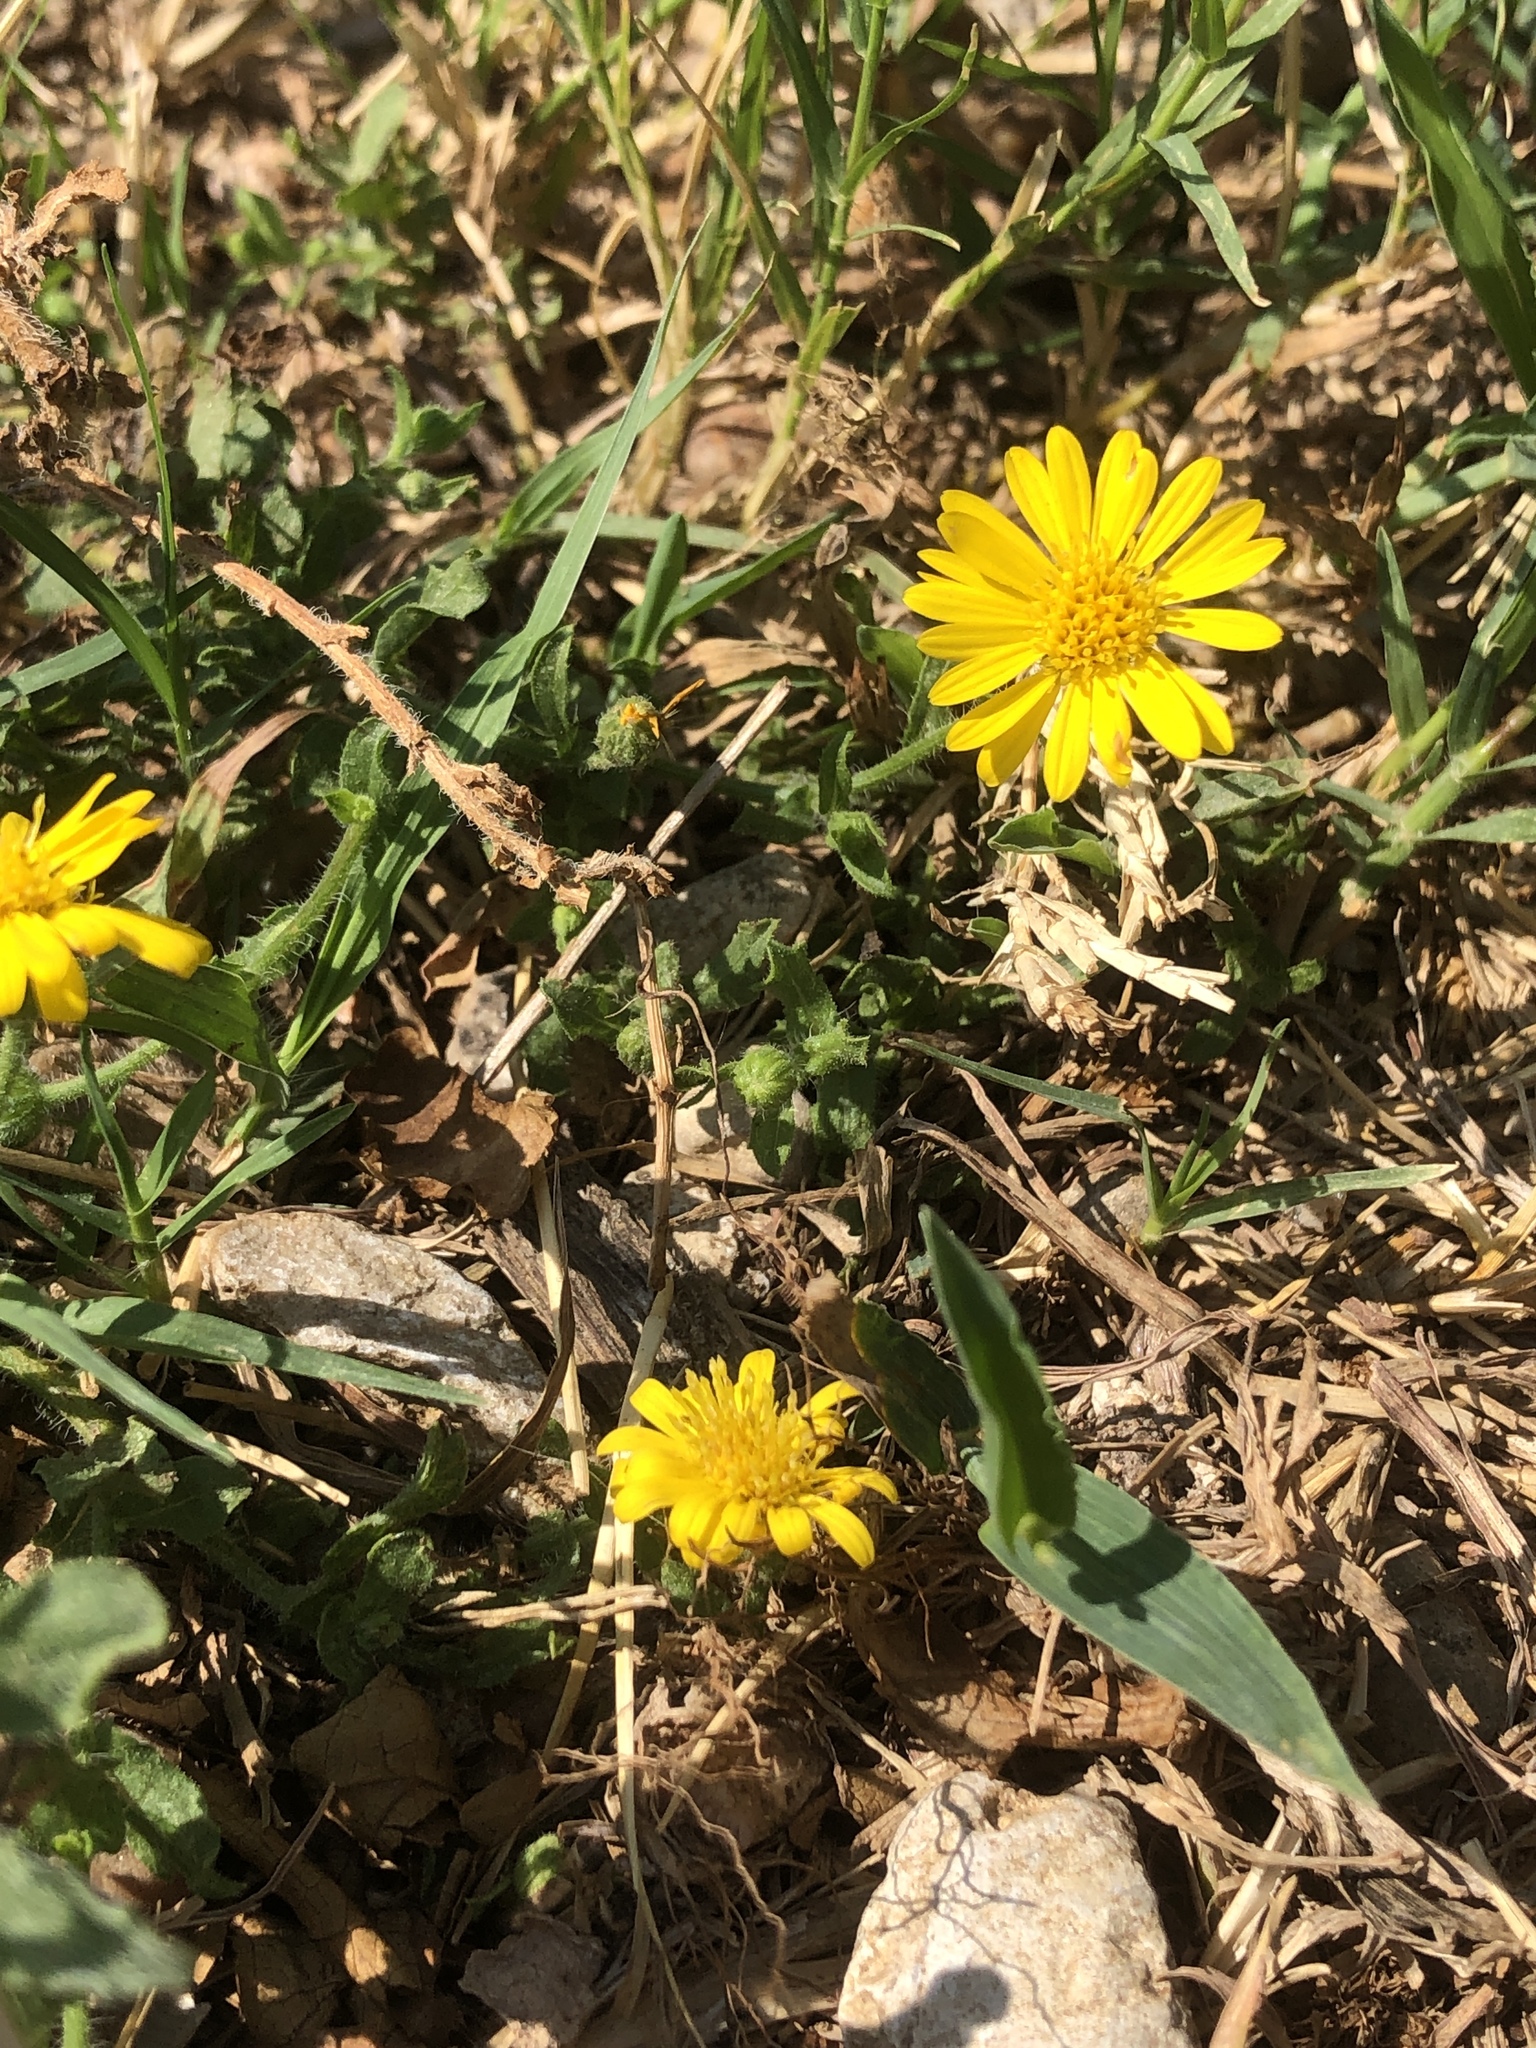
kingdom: Plantae
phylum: Tracheophyta
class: Magnoliopsida
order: Asterales
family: Asteraceae
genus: Heterotheca
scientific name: Heterotheca subaxillaris
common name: Camphorweed
